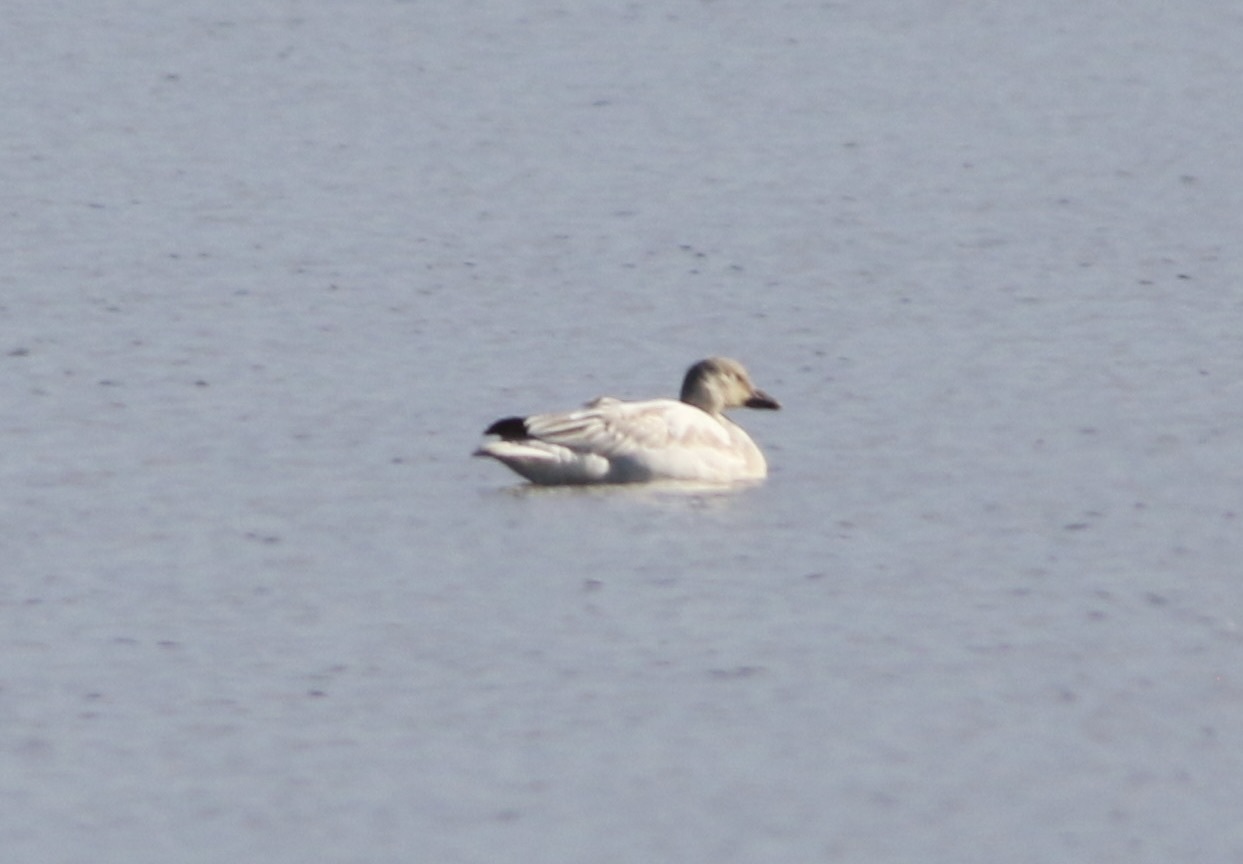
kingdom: Animalia
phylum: Chordata
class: Aves
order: Anseriformes
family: Anatidae
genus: Anser
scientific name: Anser caerulescens
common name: Snow goose
